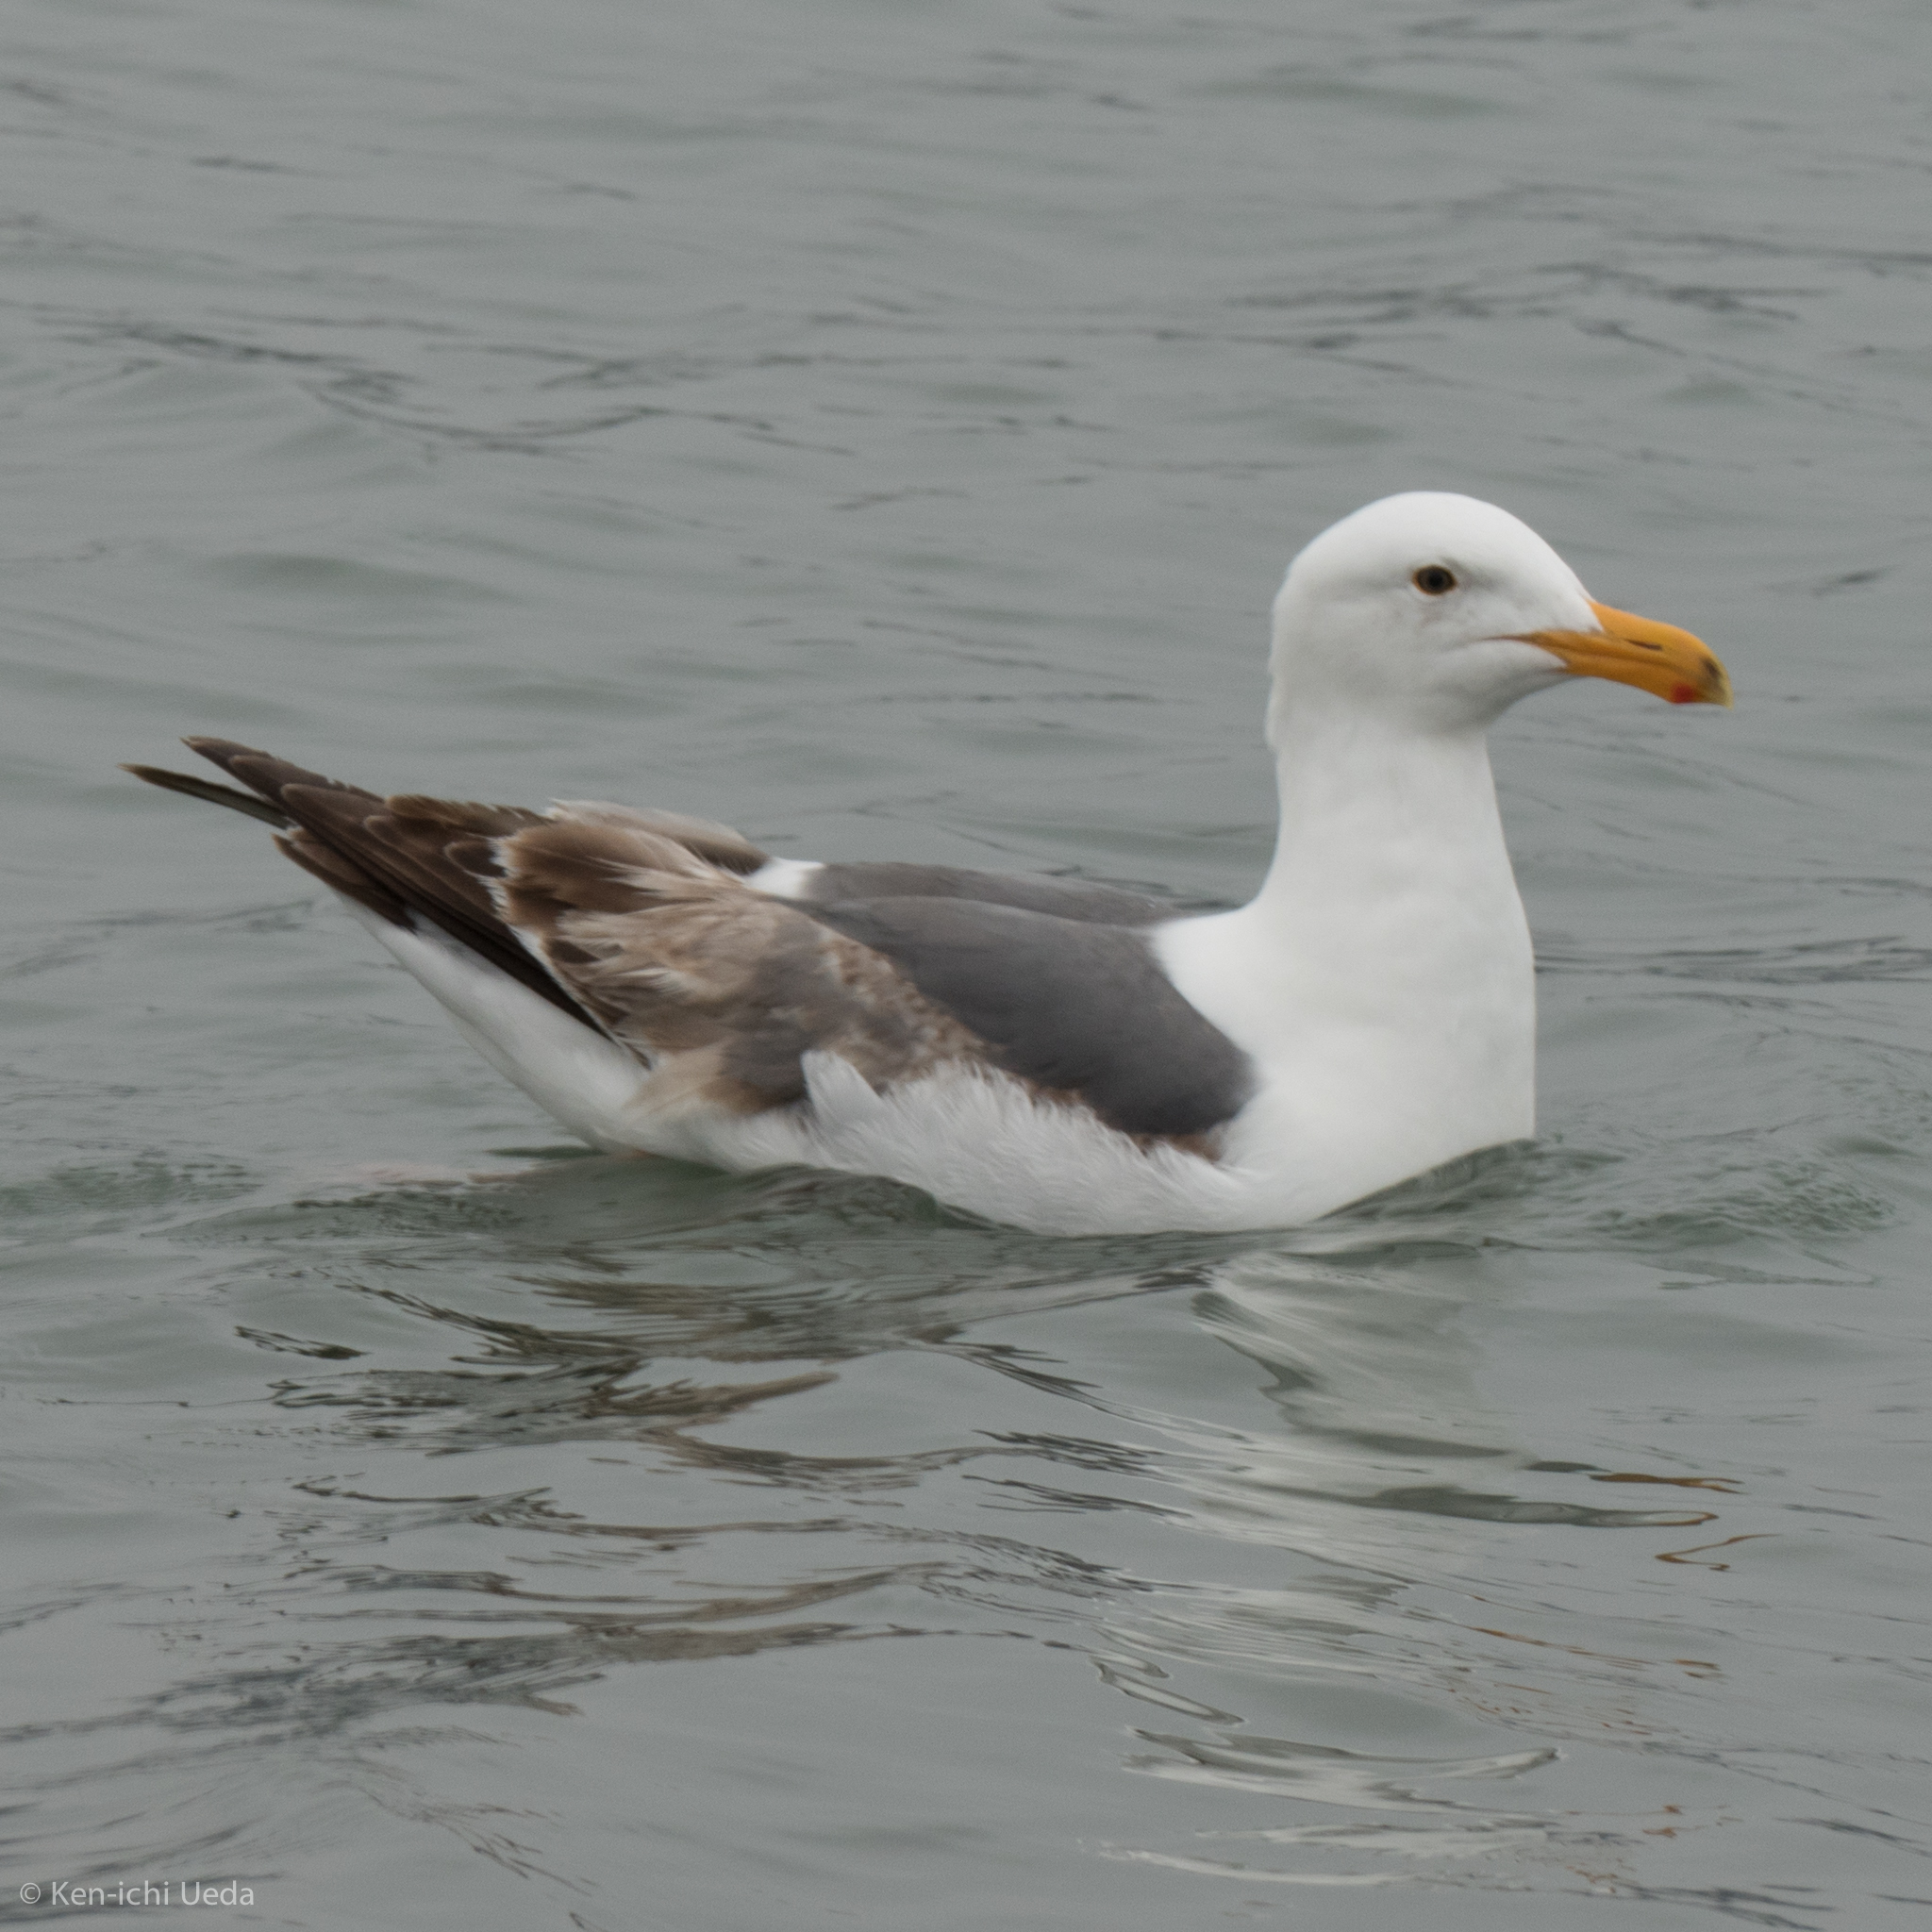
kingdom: Animalia
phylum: Chordata
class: Aves
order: Charadriiformes
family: Laridae
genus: Larus
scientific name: Larus occidentalis
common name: Western gull
